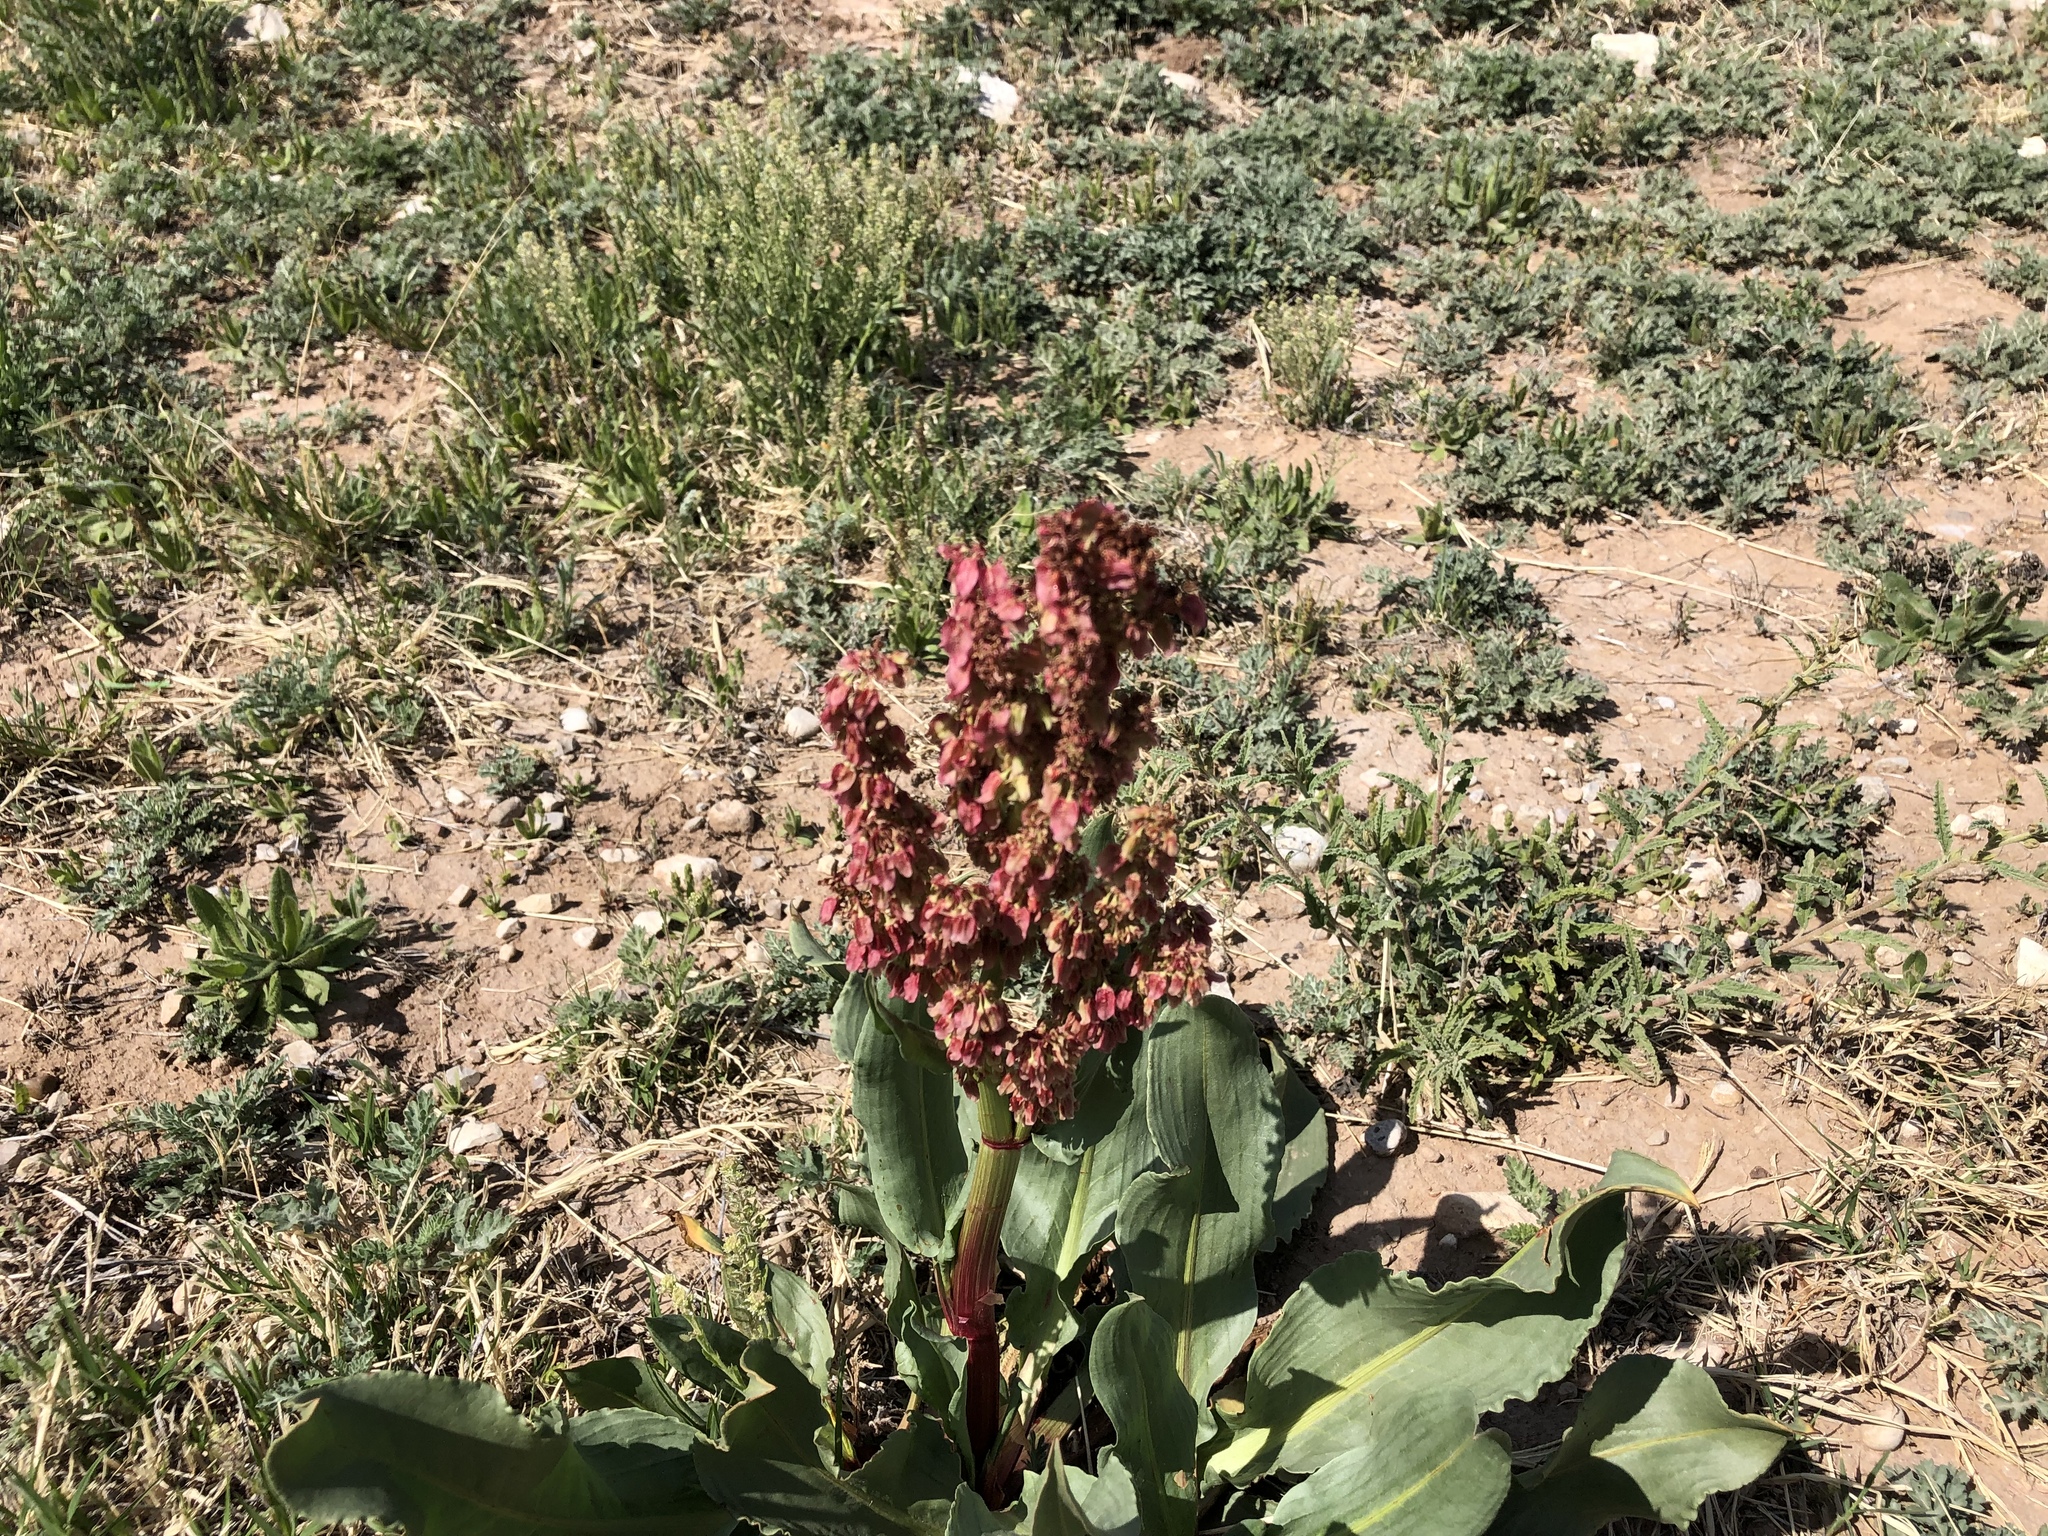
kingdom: Plantae
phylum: Tracheophyta
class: Magnoliopsida
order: Caryophyllales
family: Polygonaceae
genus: Rumex
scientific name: Rumex hymenosepalus
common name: Ganagra
